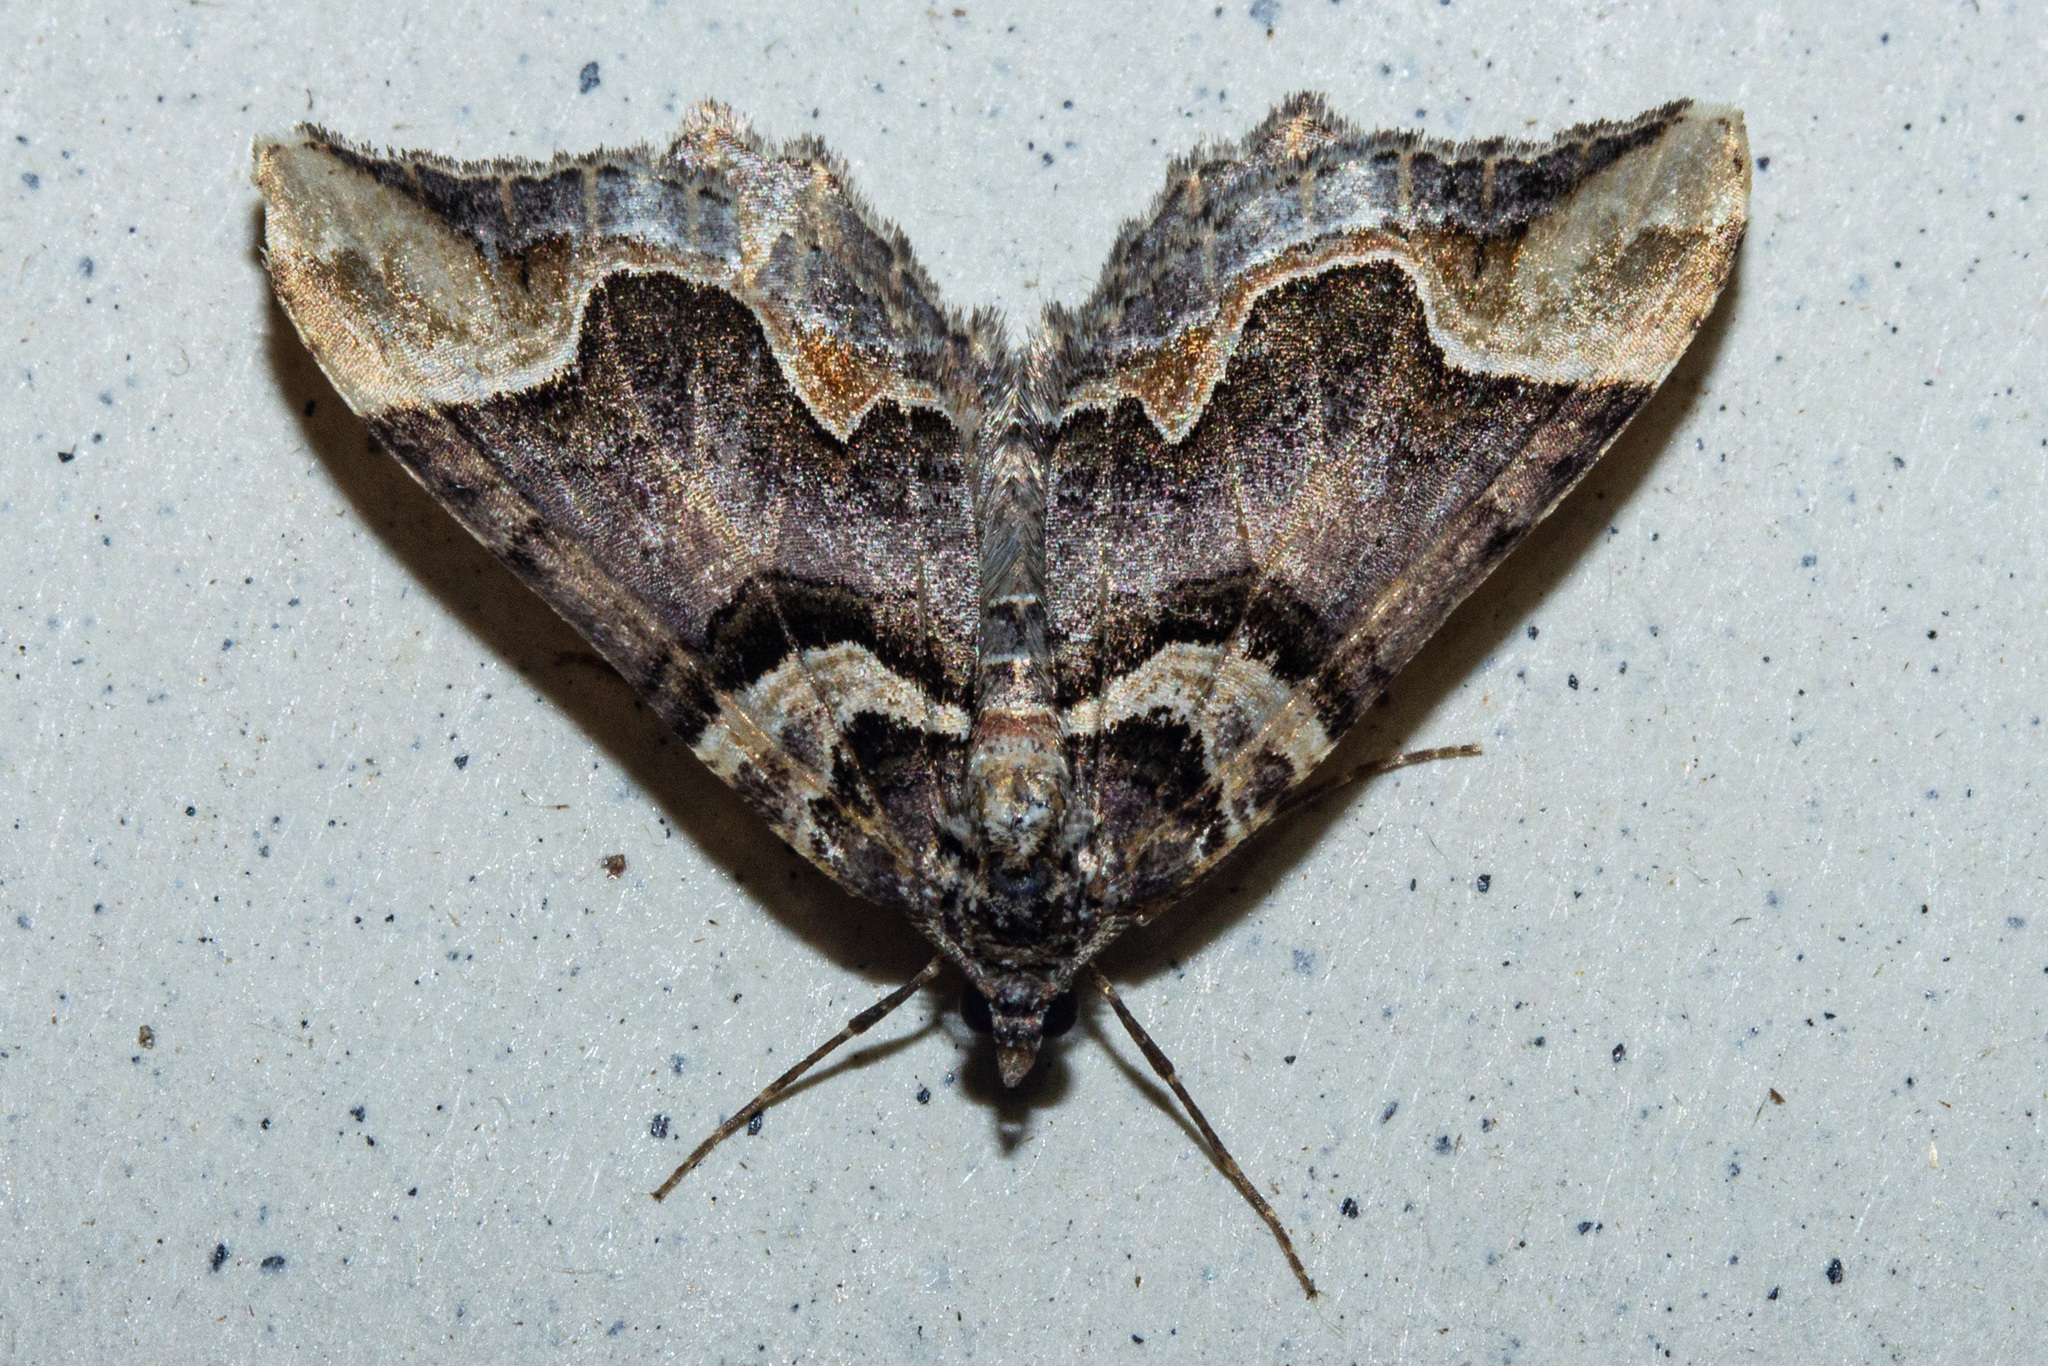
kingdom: Animalia
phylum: Arthropoda
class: Insecta
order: Lepidoptera
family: Geometridae
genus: Asaphodes
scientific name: Asaphodes chlamydota
